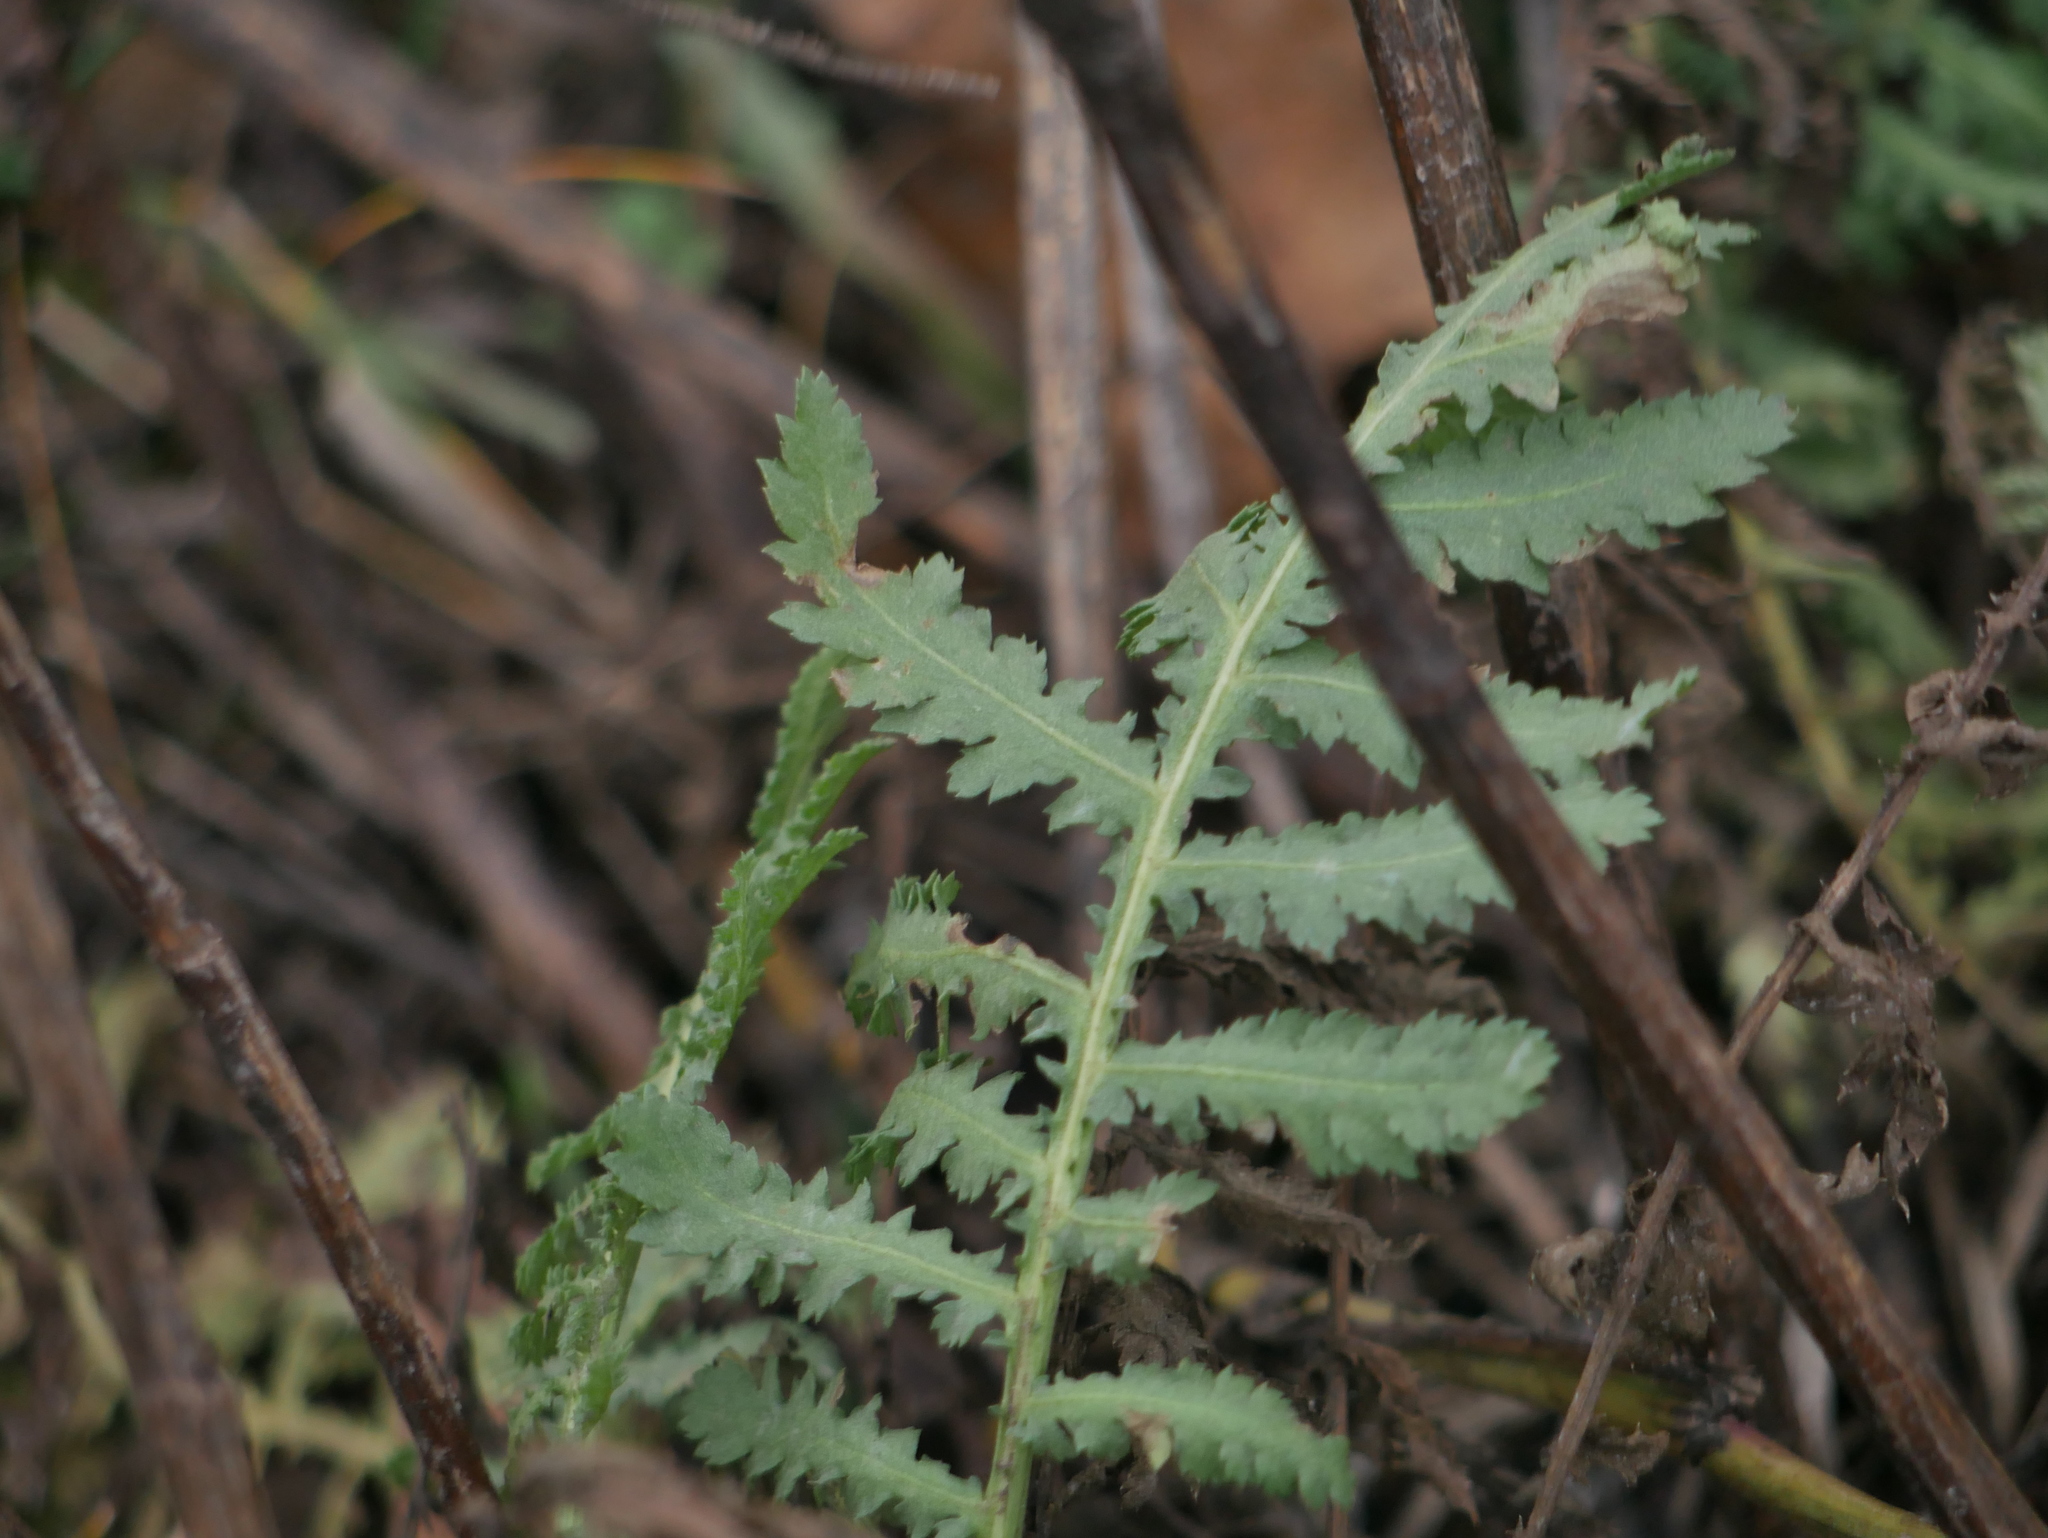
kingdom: Plantae
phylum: Tracheophyta
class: Magnoliopsida
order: Asterales
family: Asteraceae
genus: Tanacetum
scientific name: Tanacetum vulgare
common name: Common tansy
